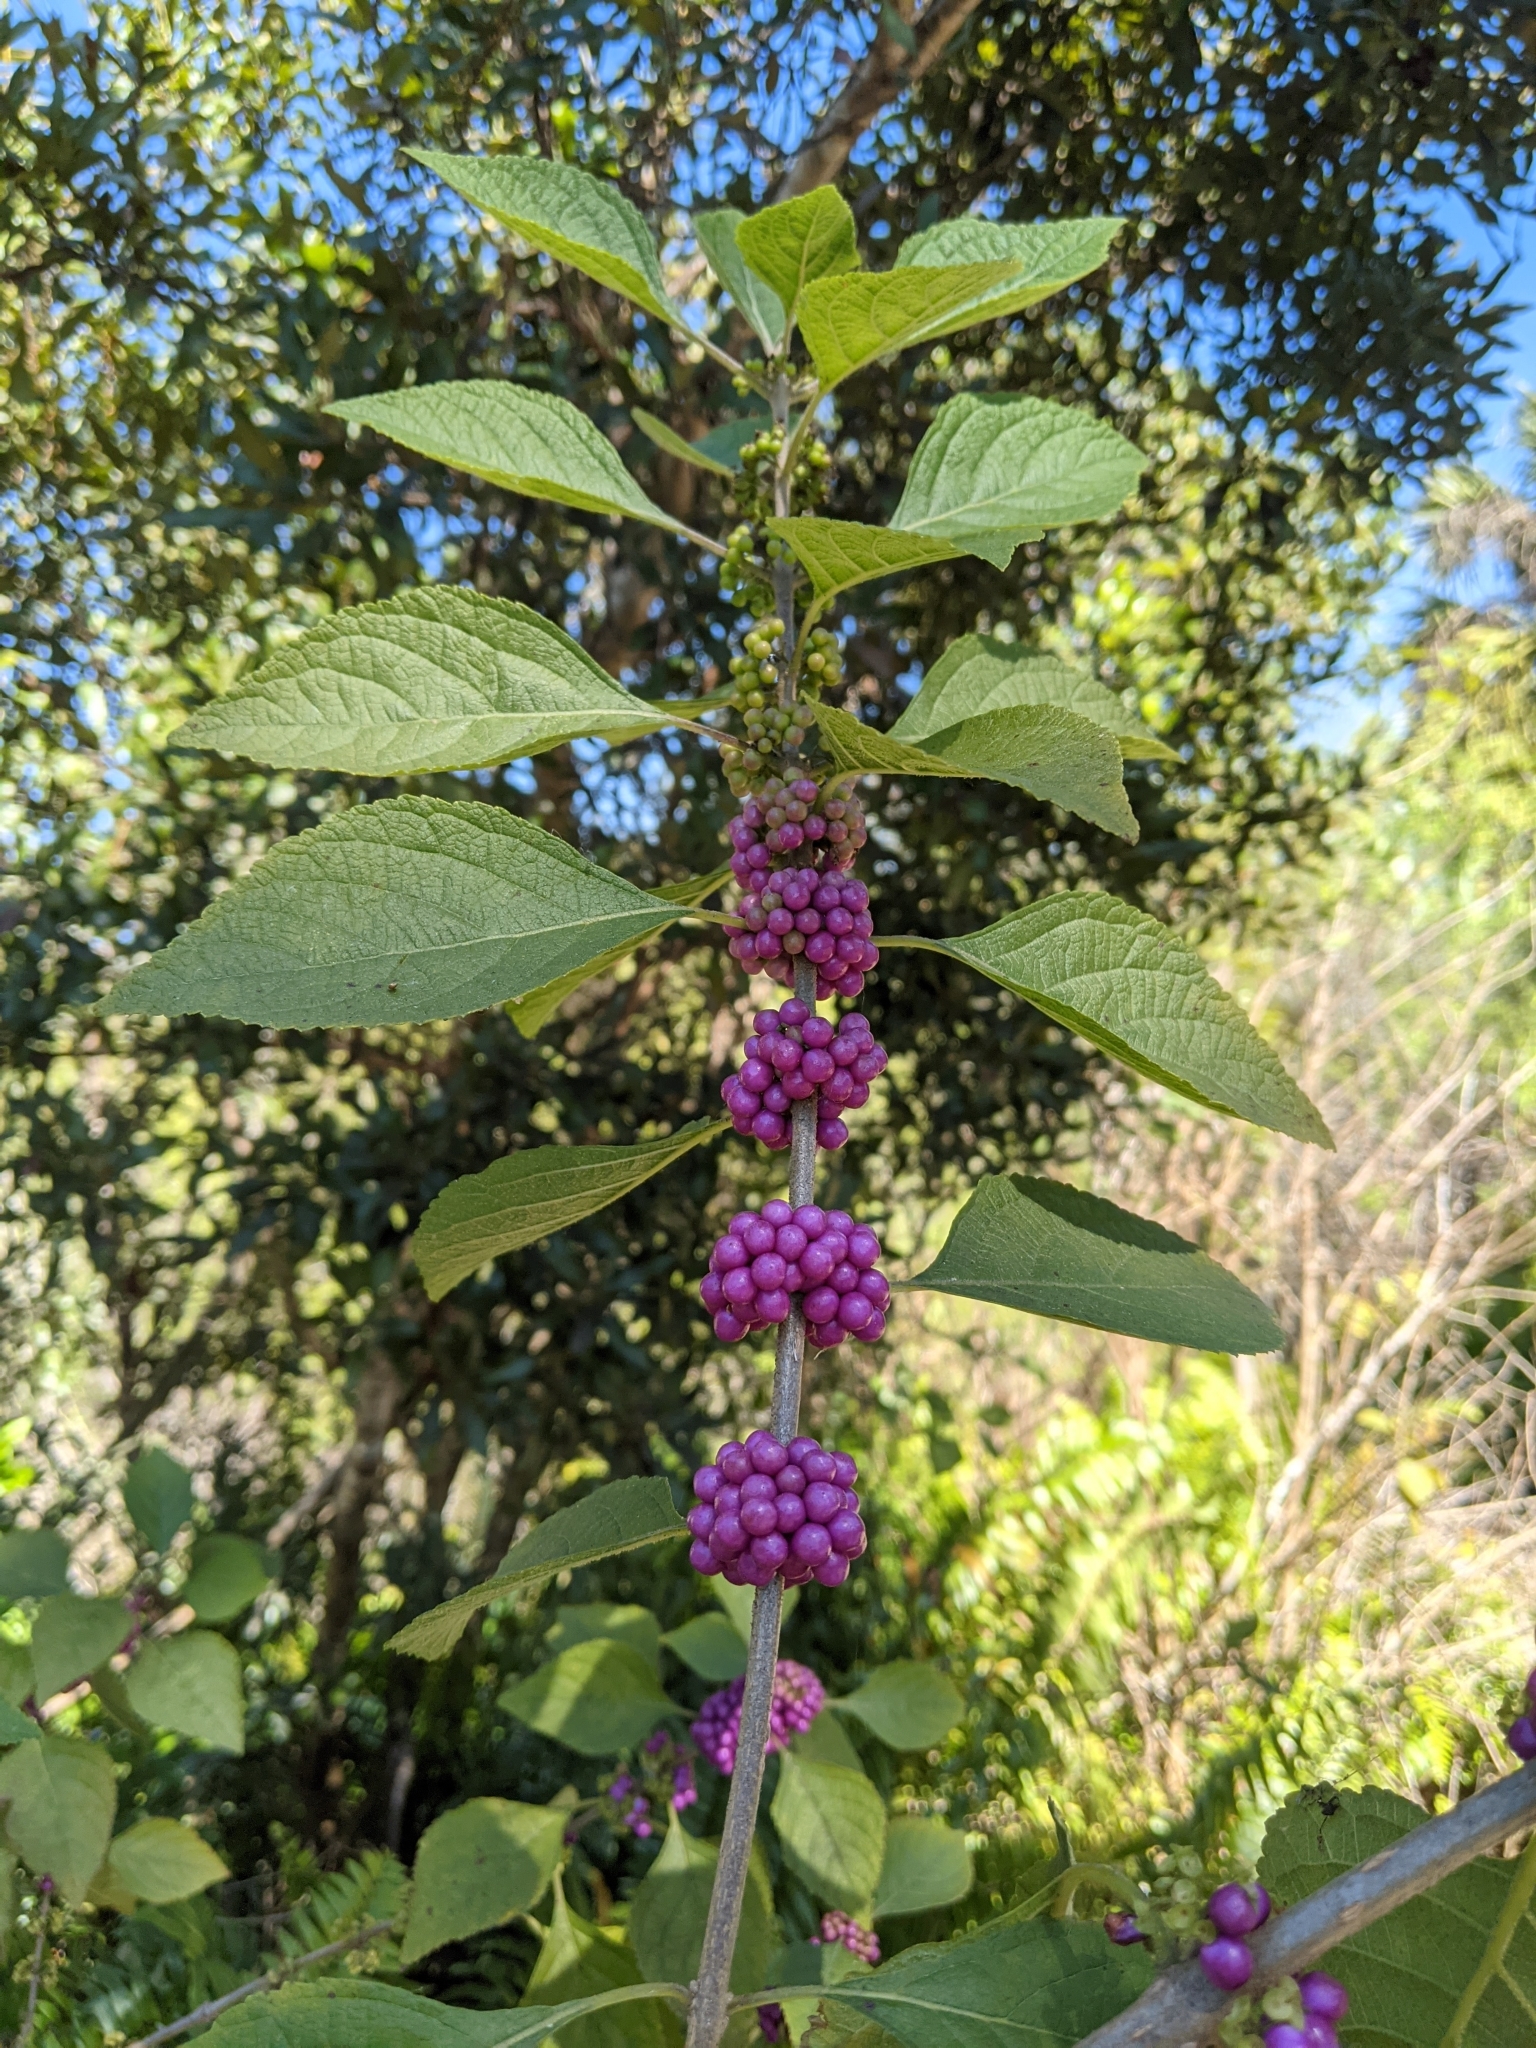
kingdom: Plantae
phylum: Tracheophyta
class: Magnoliopsida
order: Lamiales
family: Lamiaceae
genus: Callicarpa
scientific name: Callicarpa americana
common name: American beautyberry
